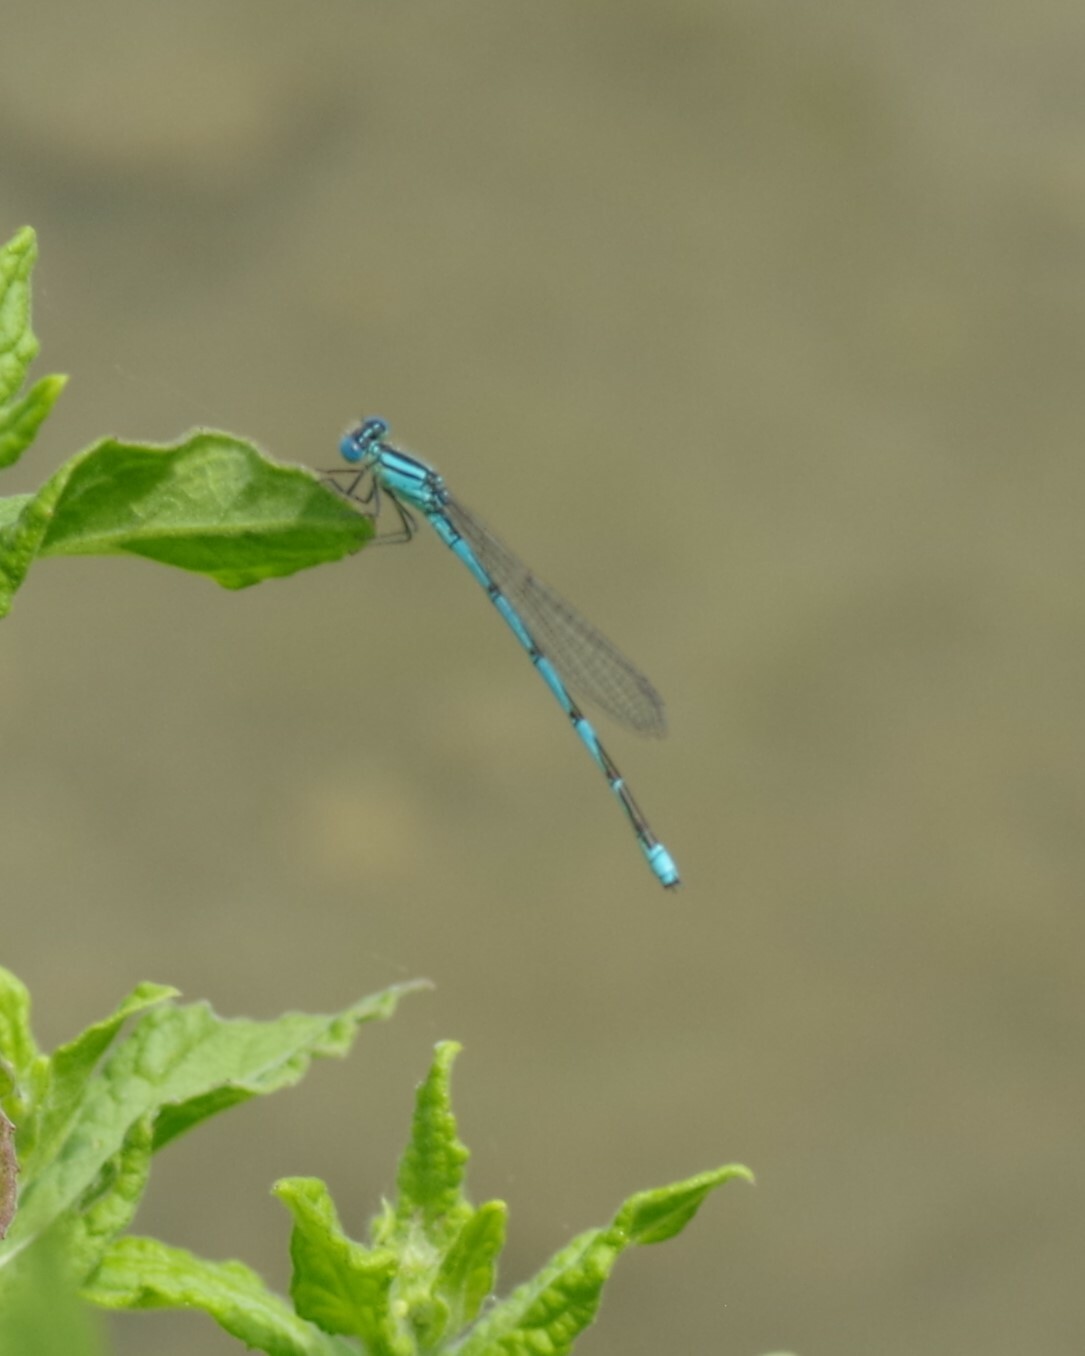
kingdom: Animalia
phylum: Arthropoda
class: Insecta
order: Odonata
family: Coenagrionidae
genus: Erythromma
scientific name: Erythromma lindenii
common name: Blue-eye
